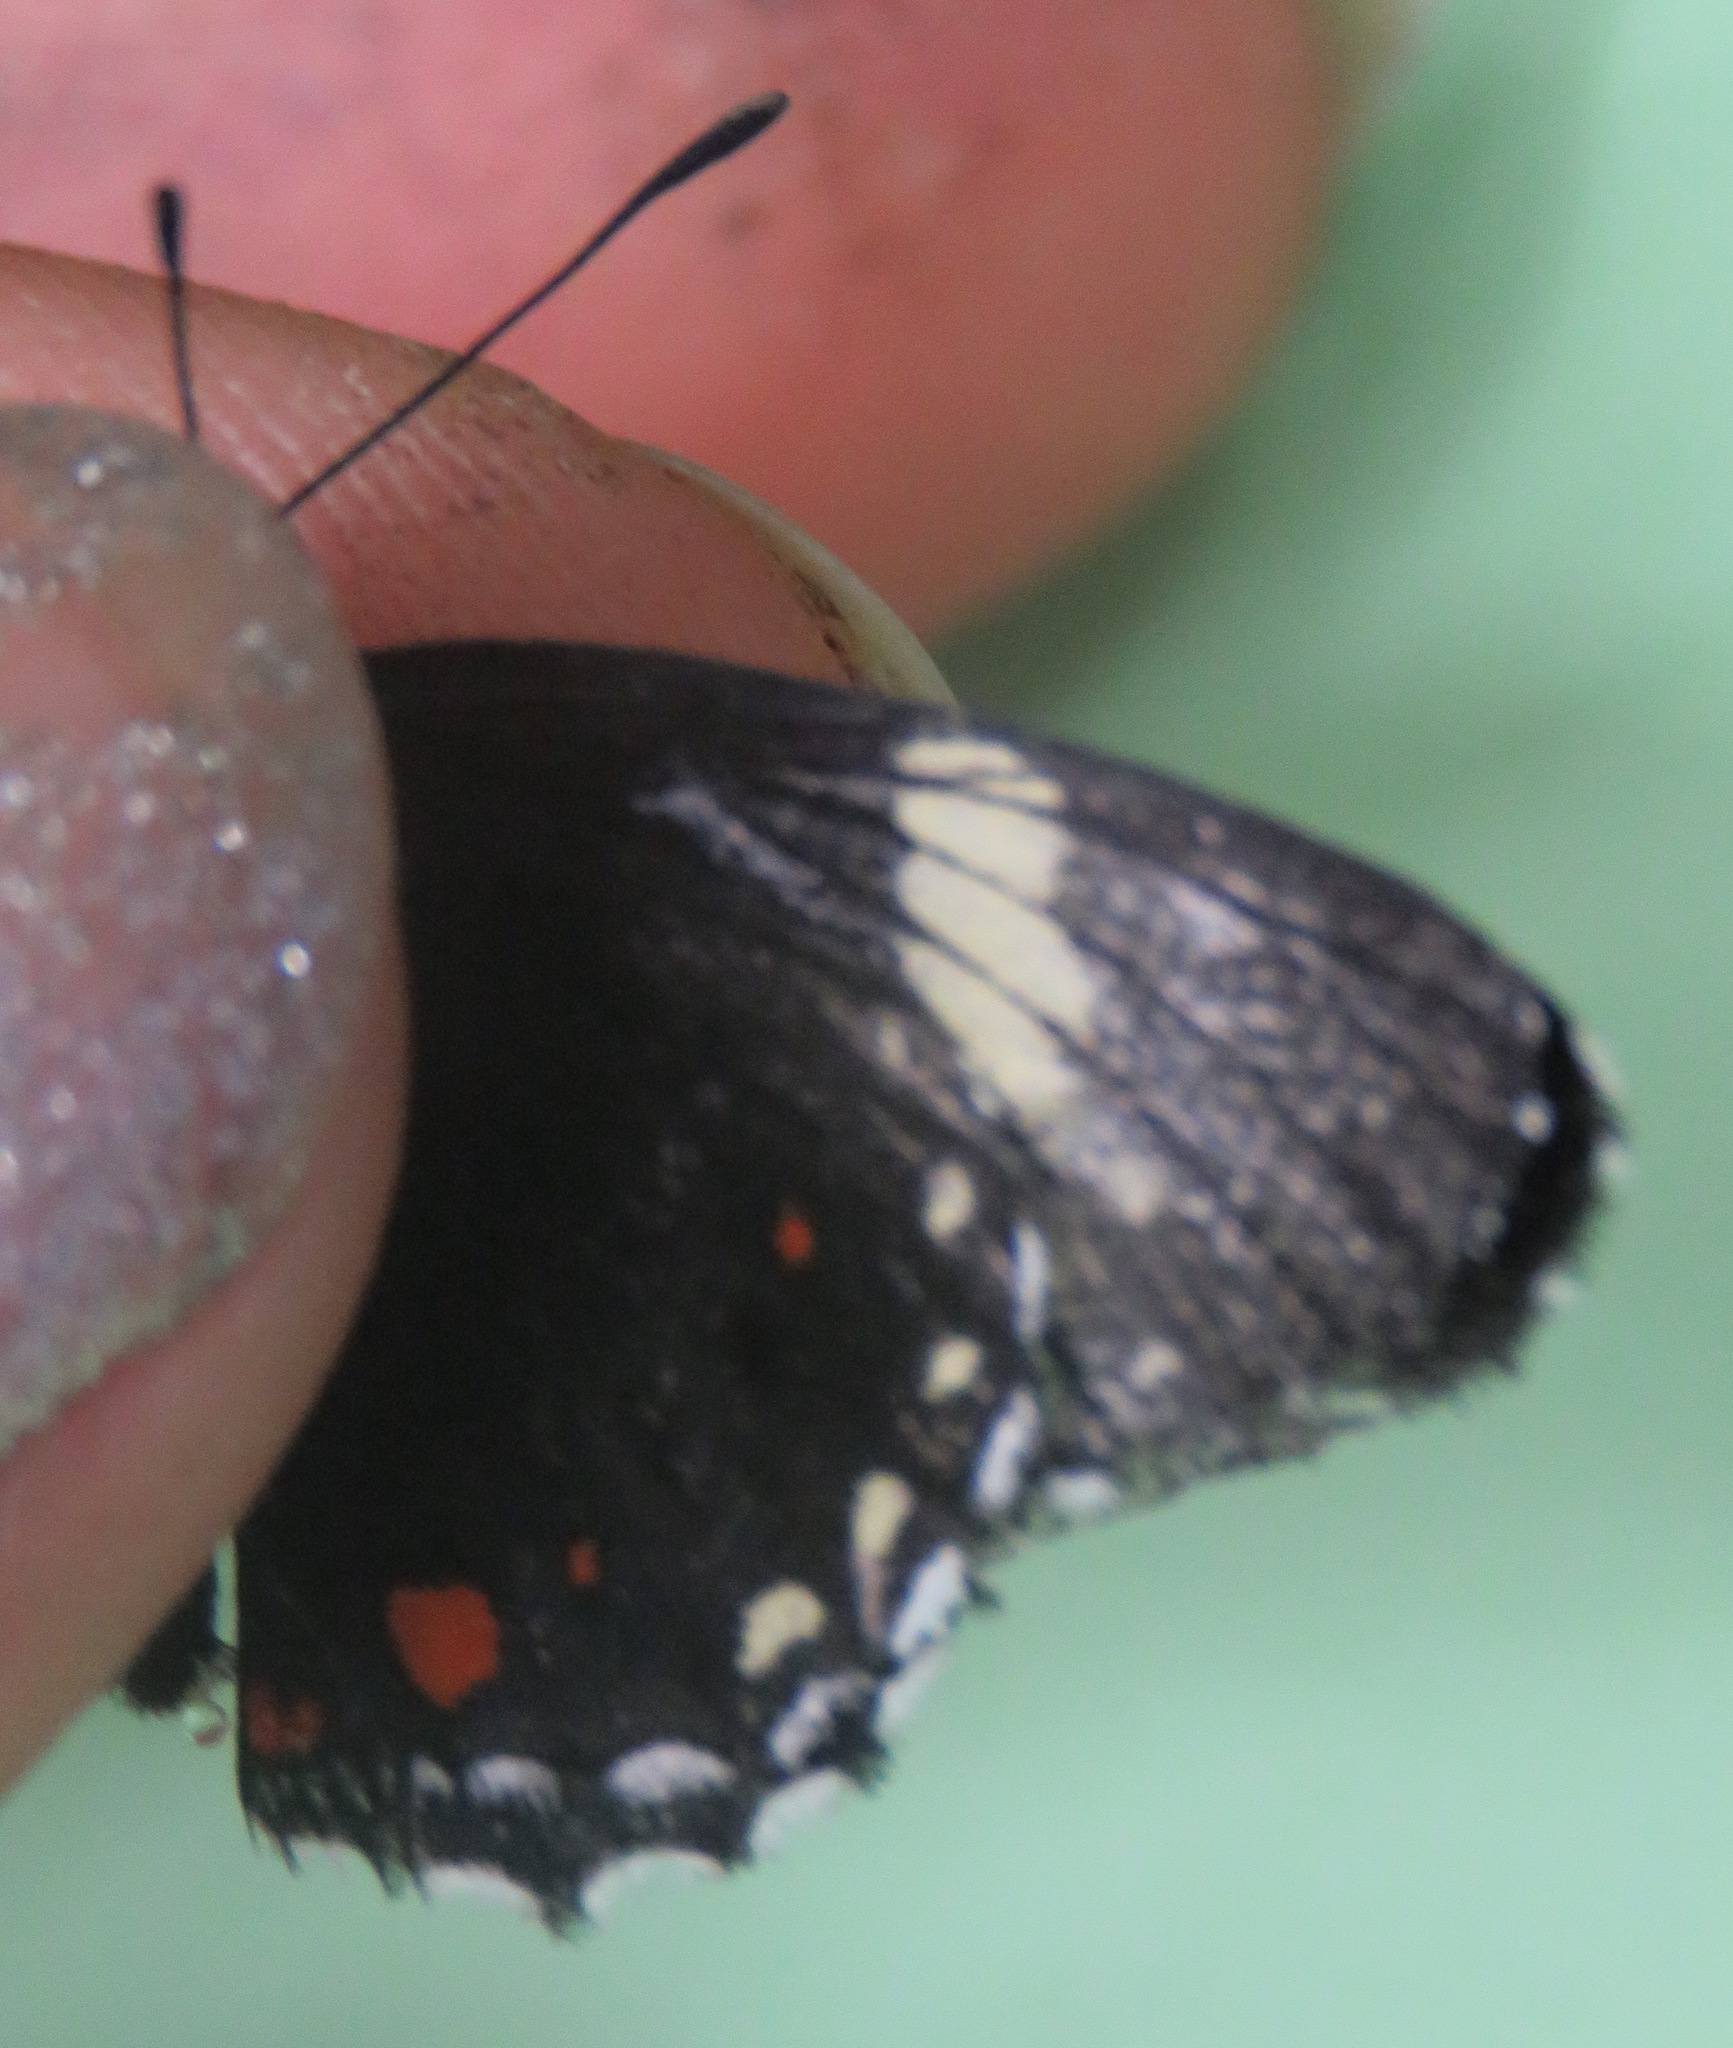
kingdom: Animalia
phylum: Arthropoda
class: Insecta
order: Lepidoptera
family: Nymphalidae
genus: Chlosyne
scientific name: Chlosyne melanarge
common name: Cream-banded checkerspot
